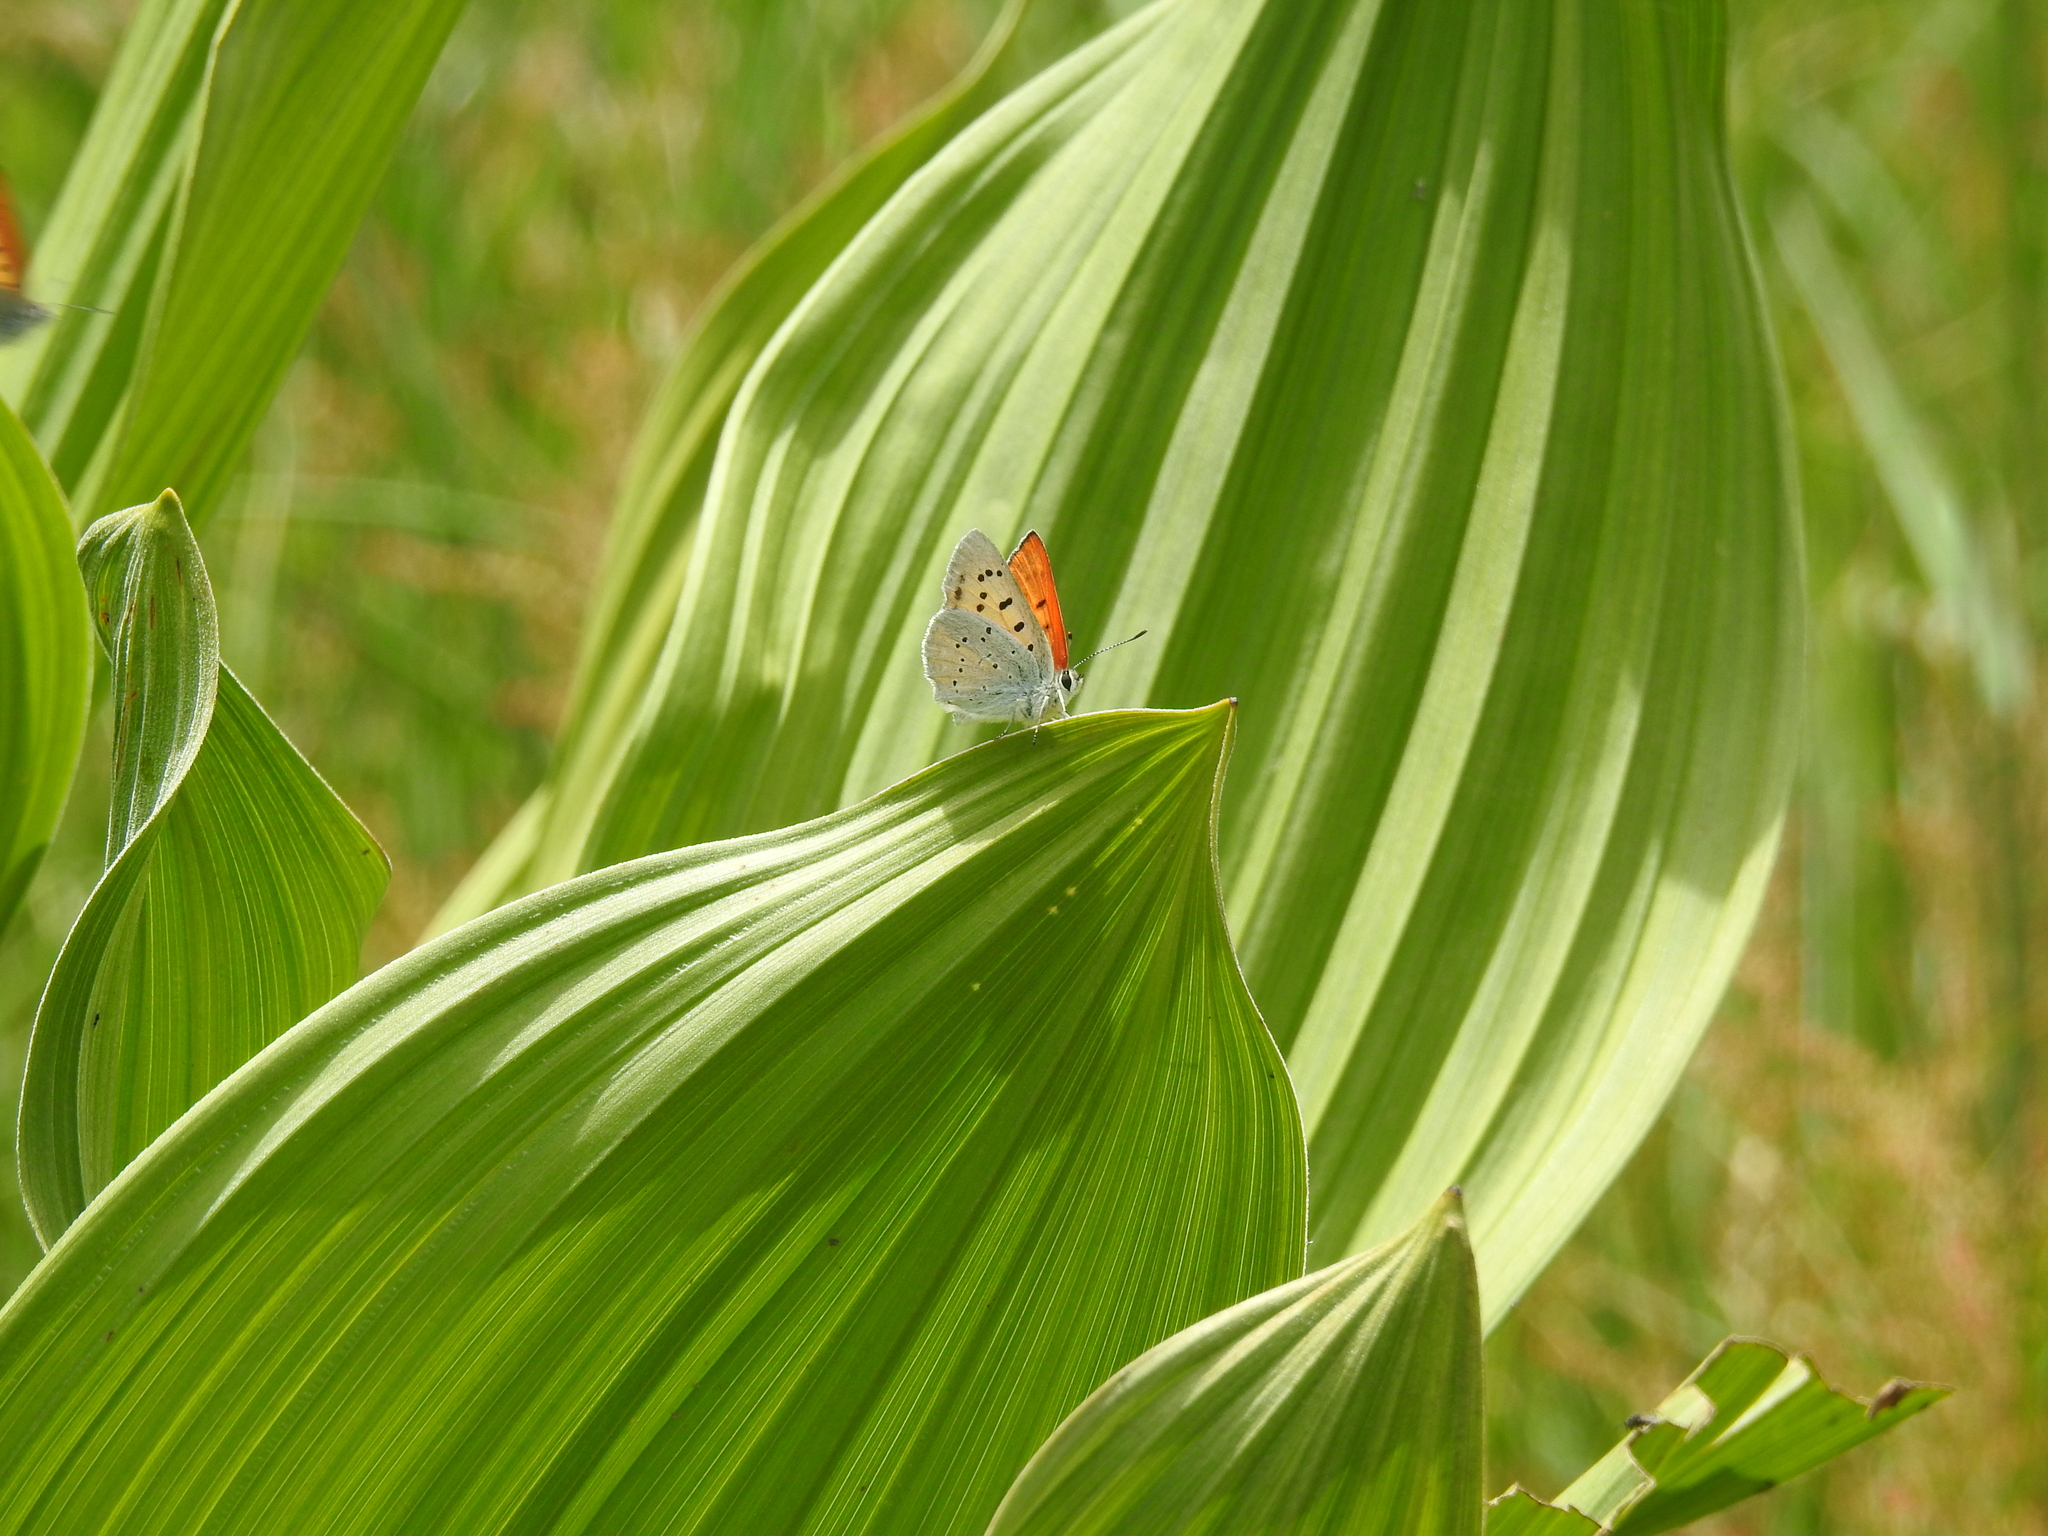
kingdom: Animalia
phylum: Arthropoda
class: Insecta
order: Lepidoptera
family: Lycaenidae
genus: Tharsalea
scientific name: Tharsalea rubidus
